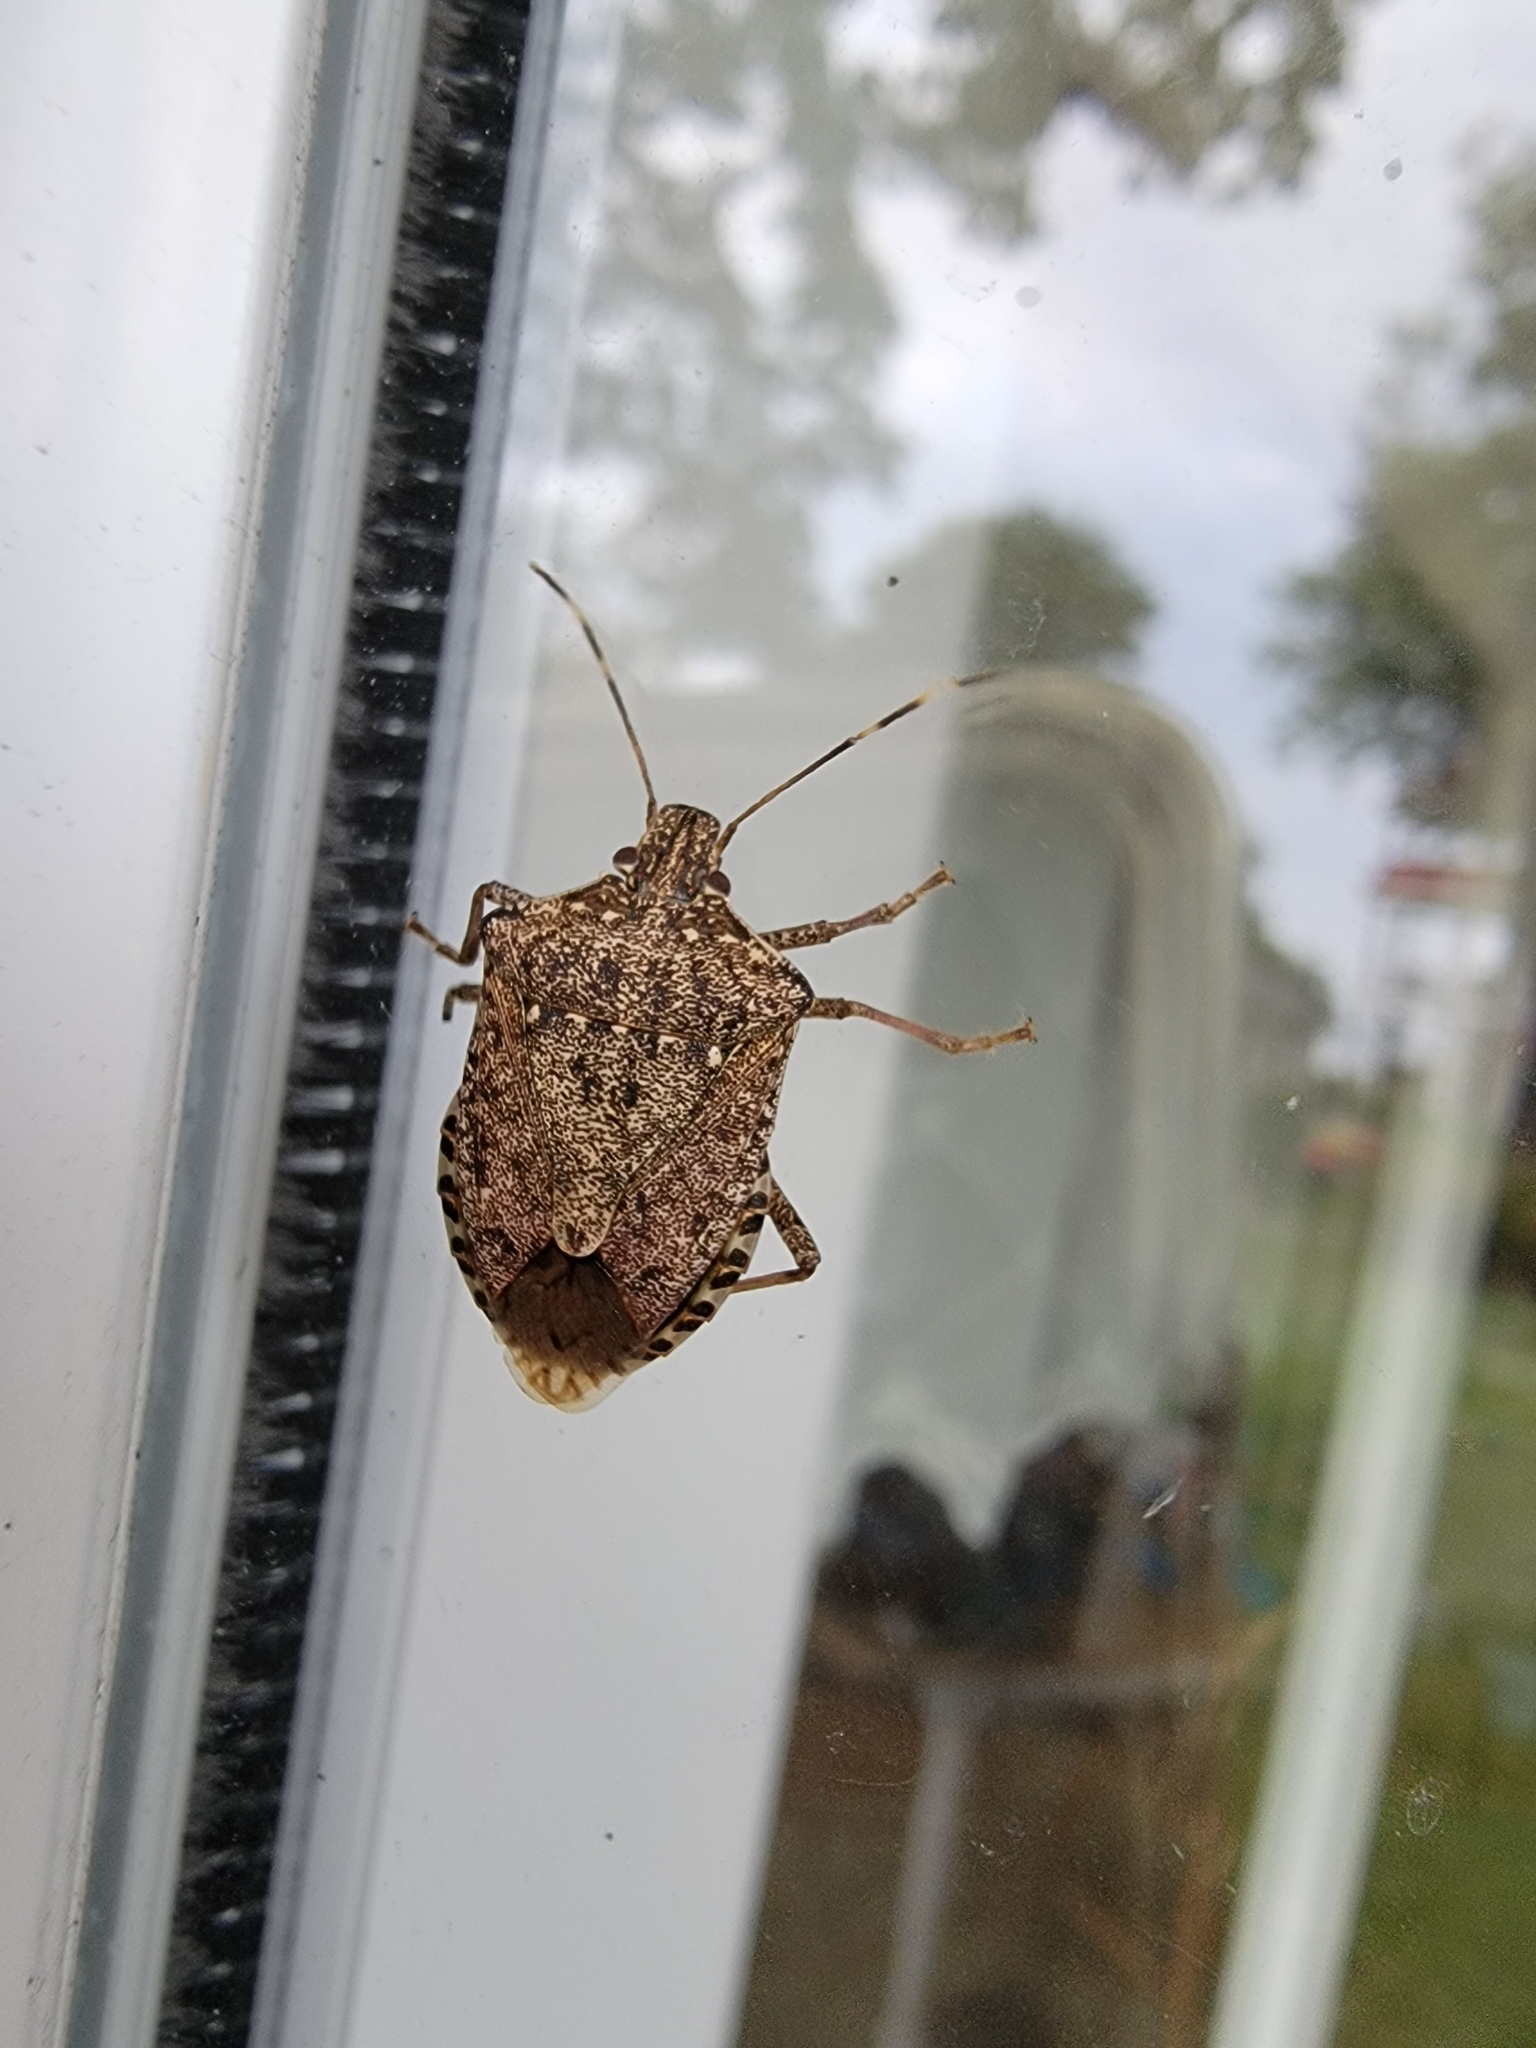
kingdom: Animalia
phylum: Arthropoda
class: Insecta
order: Hemiptera
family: Pentatomidae
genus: Halyomorpha
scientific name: Halyomorpha halys
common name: Brown marmorated stink bug
